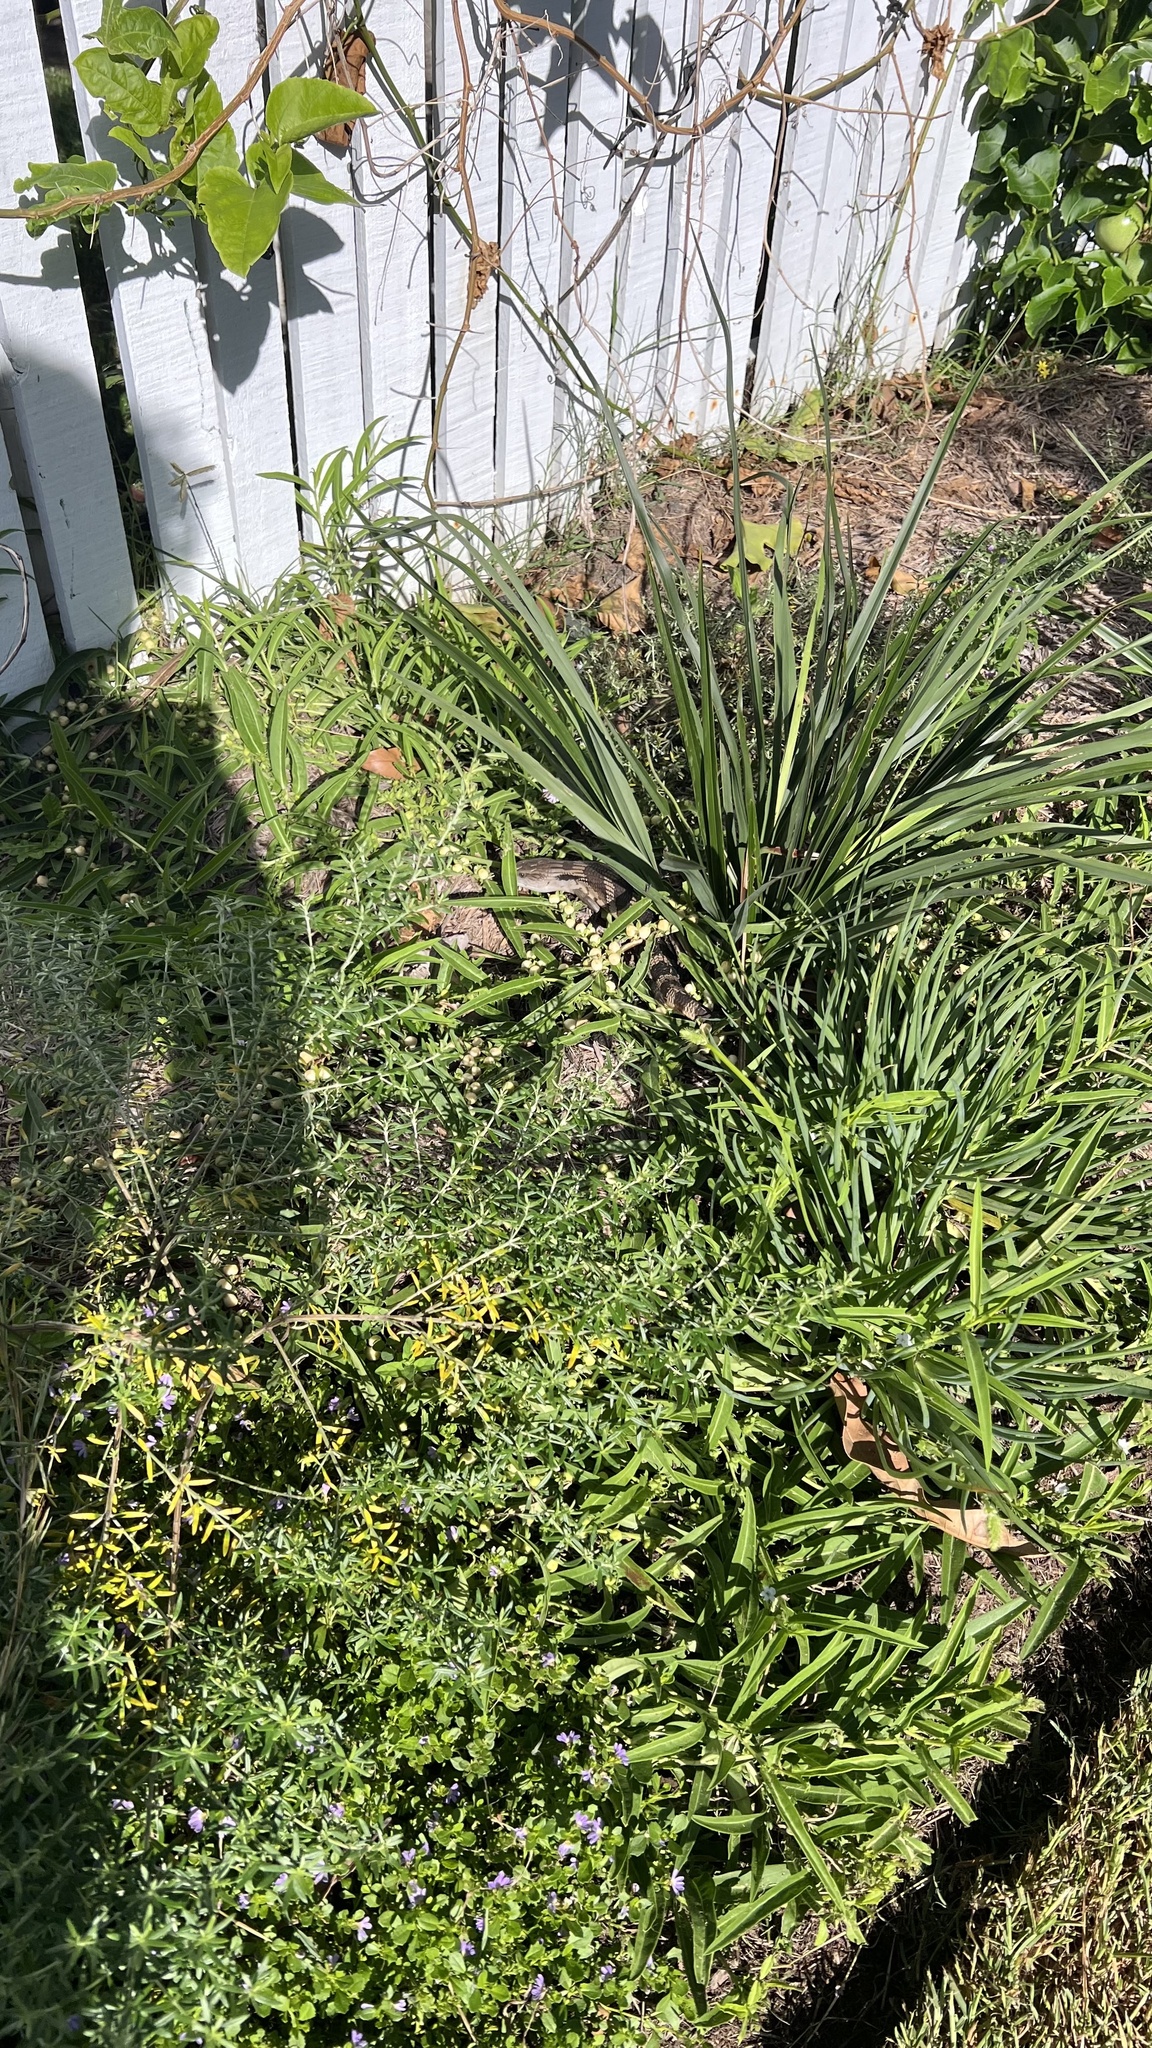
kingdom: Animalia
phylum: Chordata
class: Squamata
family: Scincidae
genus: Tiliqua
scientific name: Tiliqua scincoides
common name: Common bluetongue
